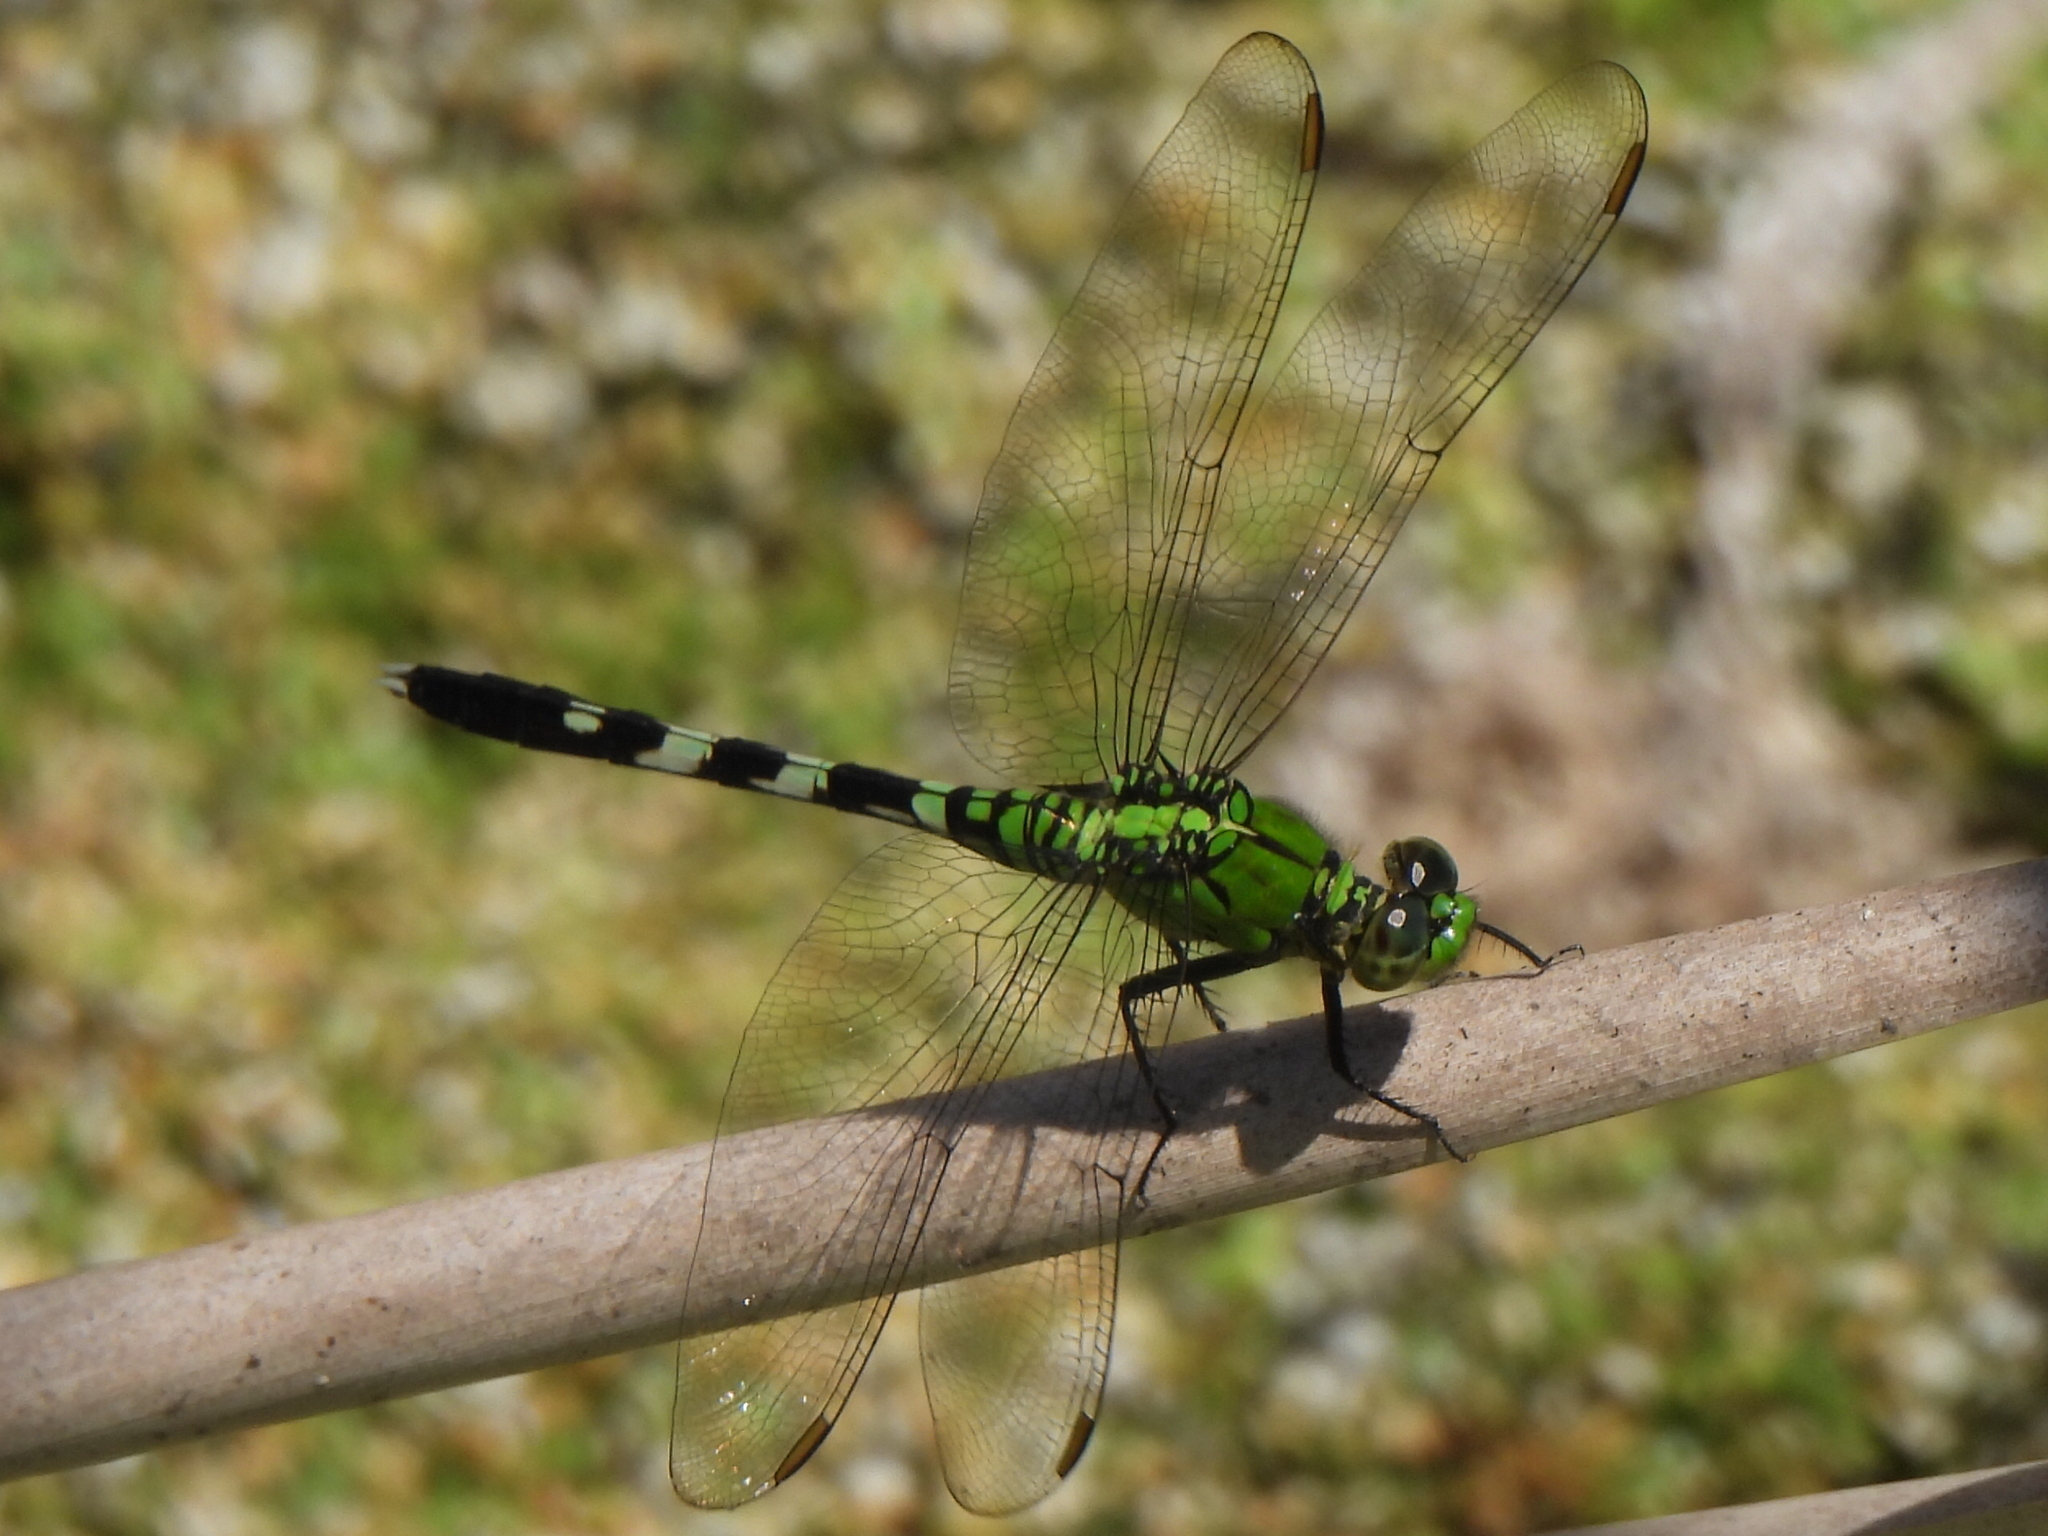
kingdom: Animalia
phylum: Arthropoda
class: Insecta
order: Odonata
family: Libellulidae
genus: Erythemis
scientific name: Erythemis simplicicollis
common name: Eastern pondhawk
